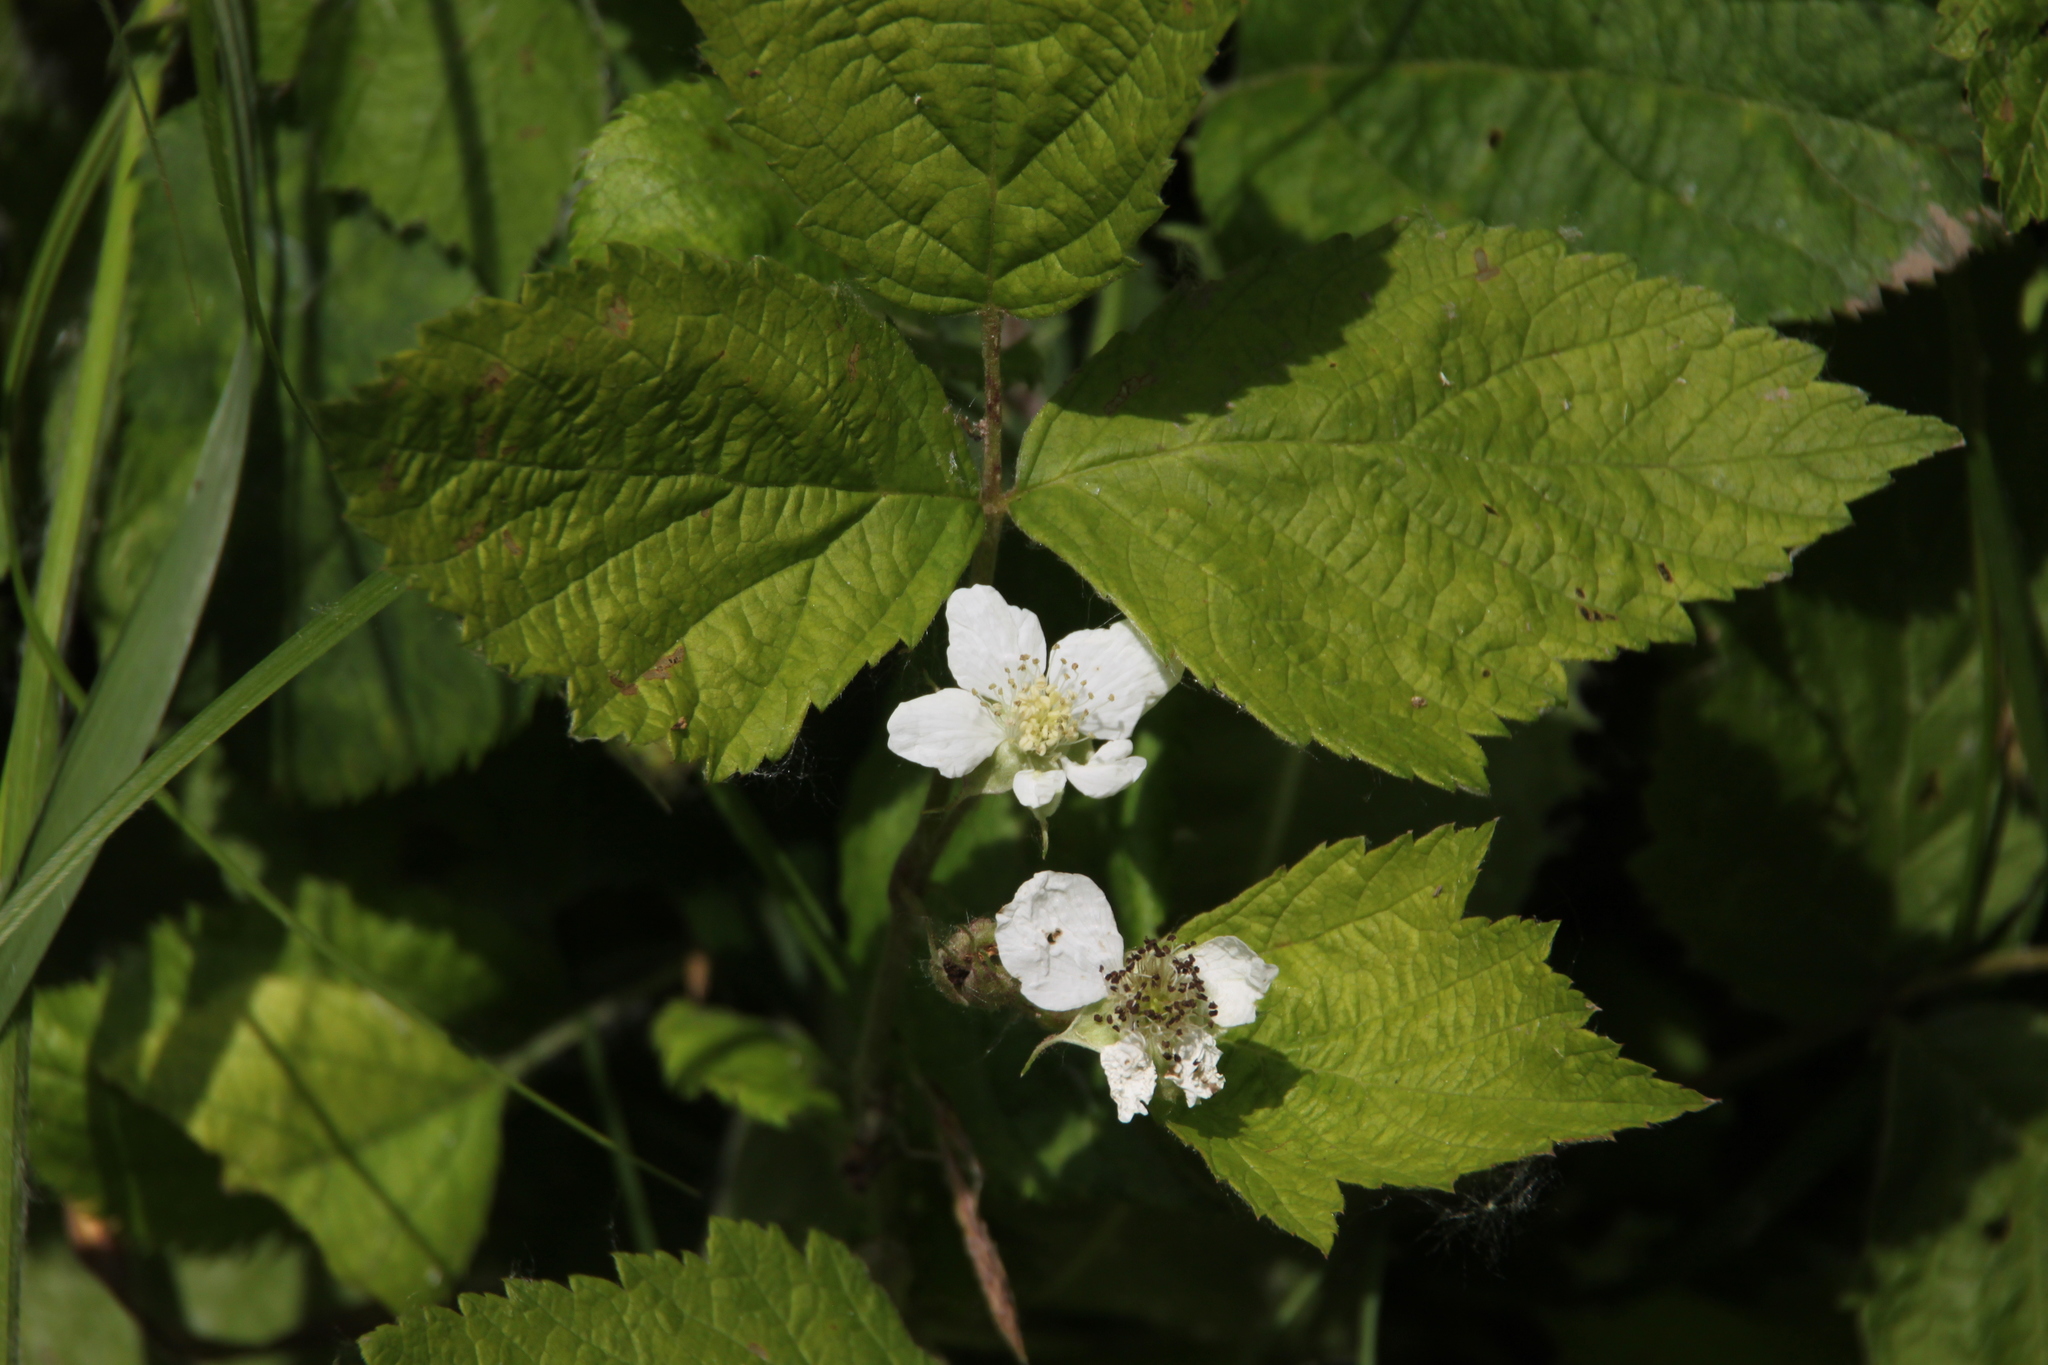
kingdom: Plantae
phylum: Tracheophyta
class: Magnoliopsida
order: Rosales
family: Rosaceae
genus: Rubus
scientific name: Rubus caesius
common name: Dewberry
